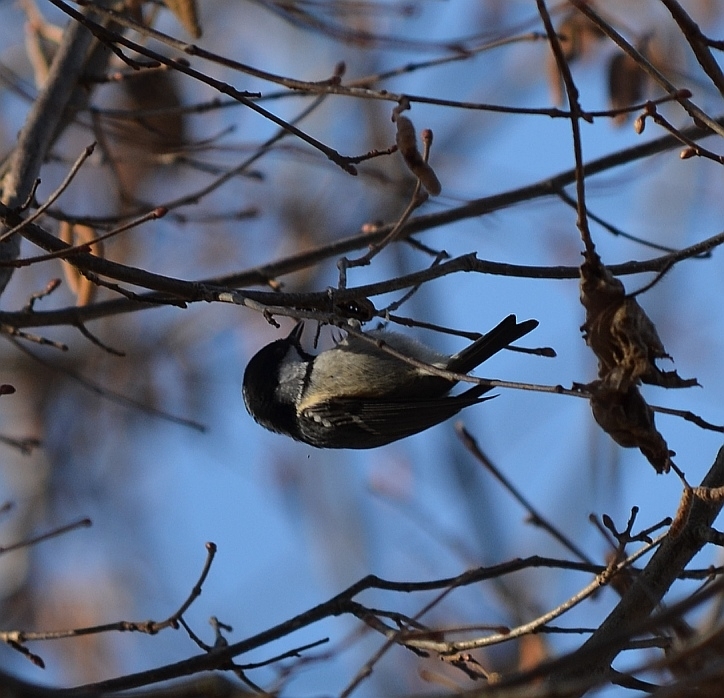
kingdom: Animalia
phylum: Chordata
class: Aves
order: Passeriformes
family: Paridae
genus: Periparus
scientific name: Periparus ater
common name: Coal tit
